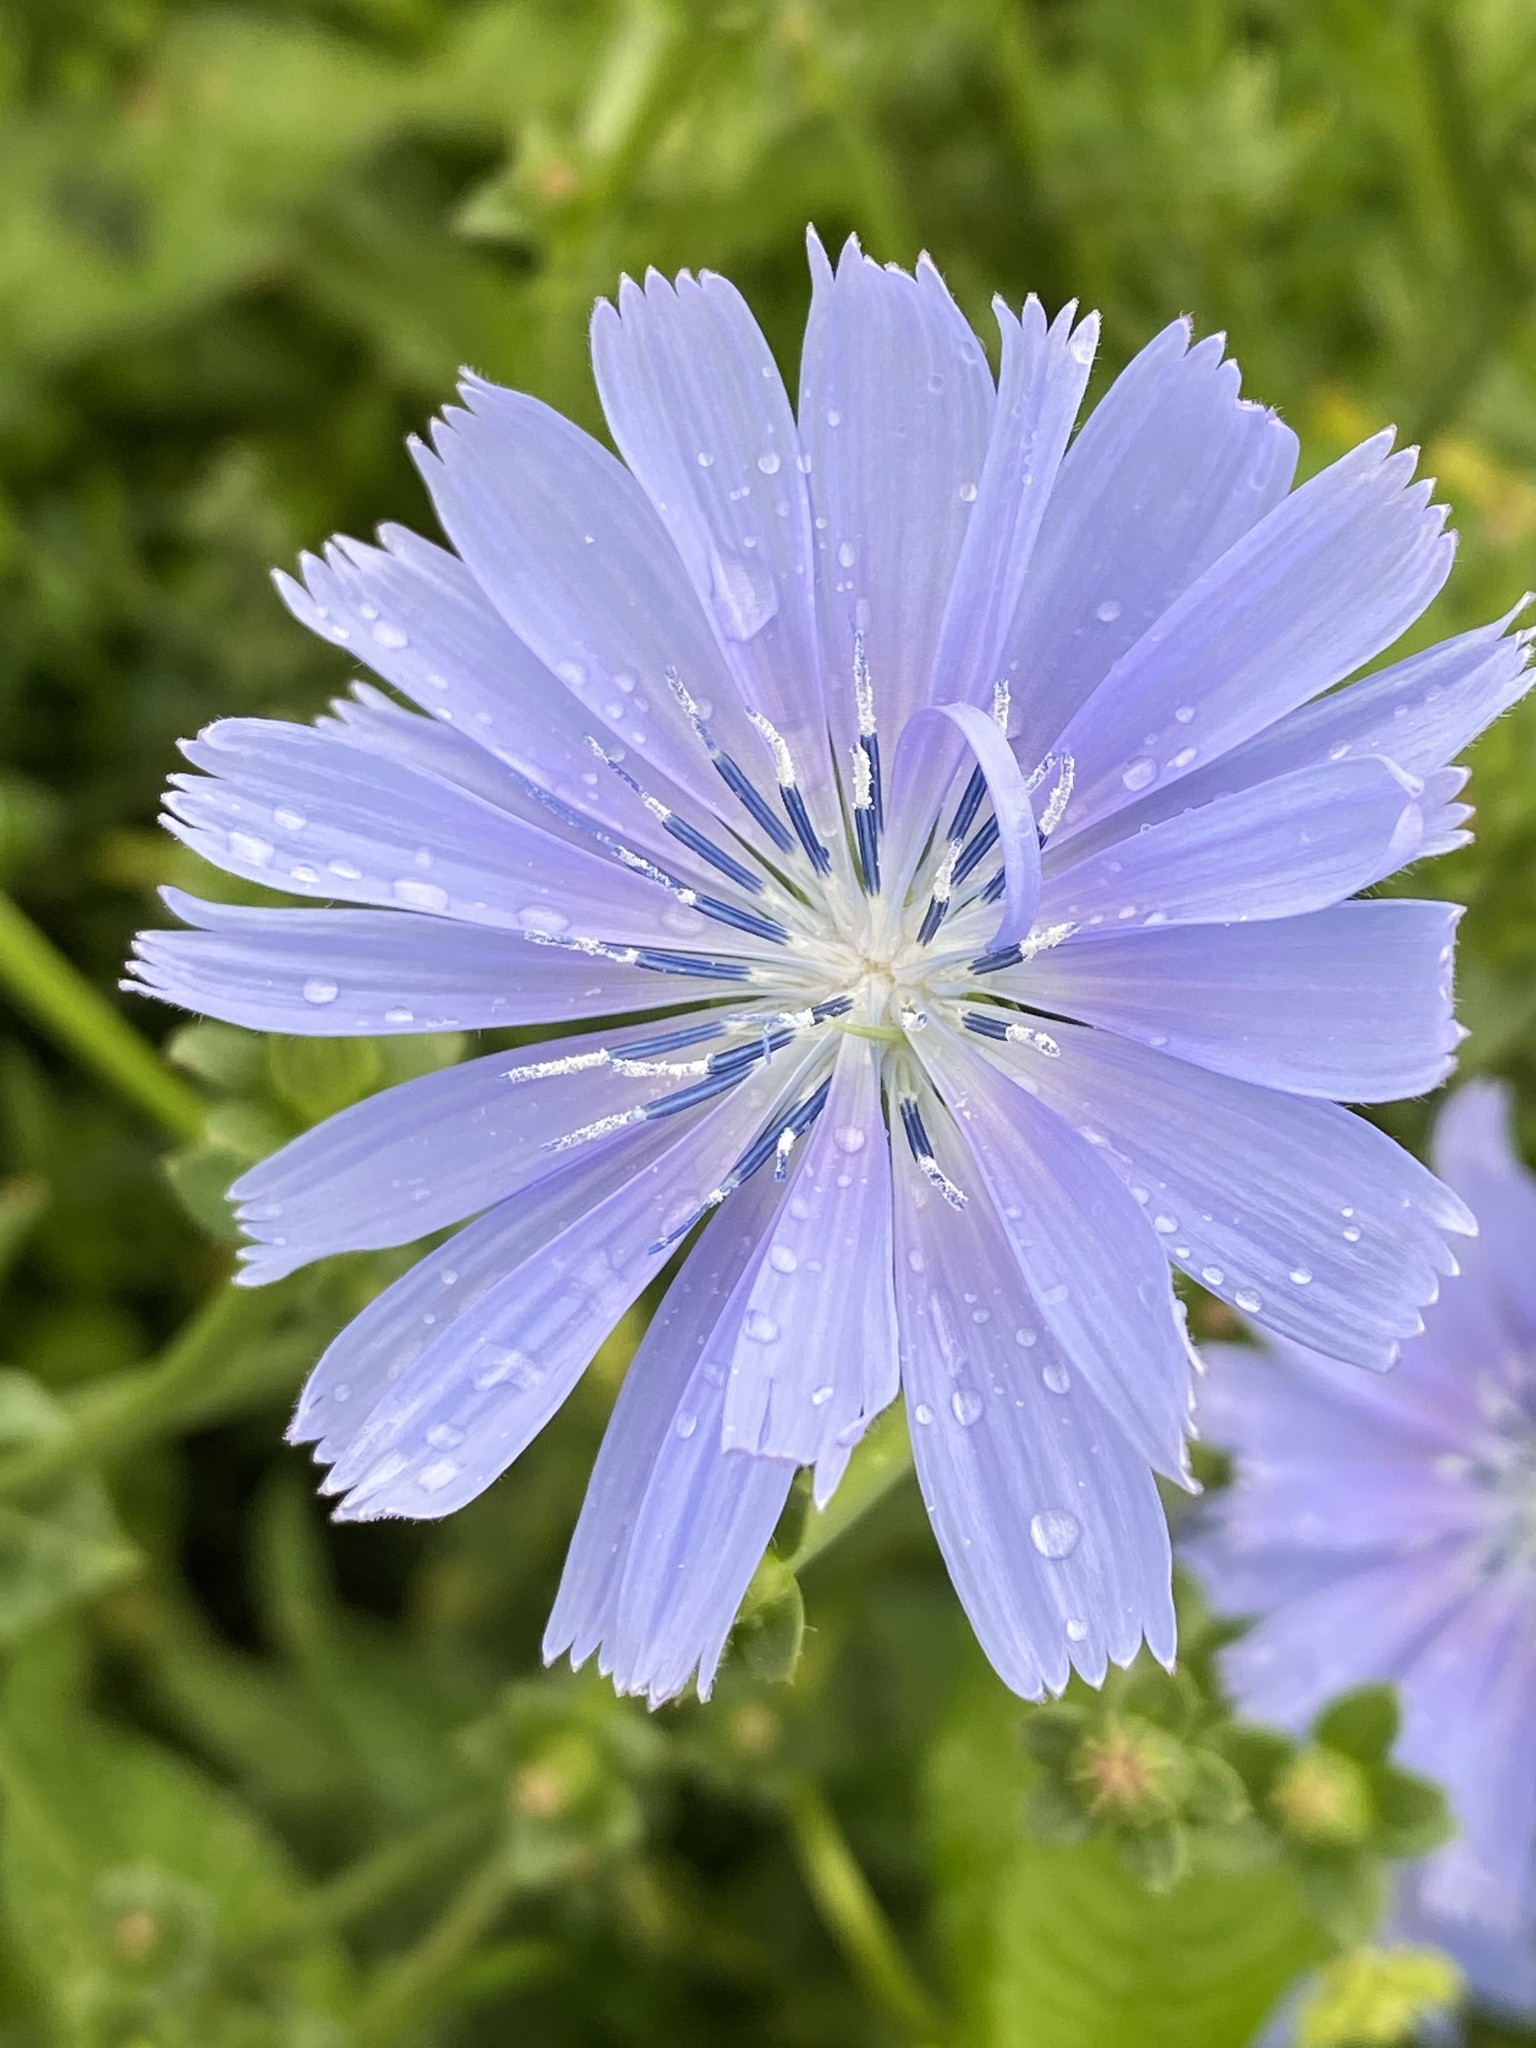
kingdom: Plantae
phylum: Tracheophyta
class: Magnoliopsida
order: Asterales
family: Asteraceae
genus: Cichorium
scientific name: Cichorium intybus
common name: Chicory
